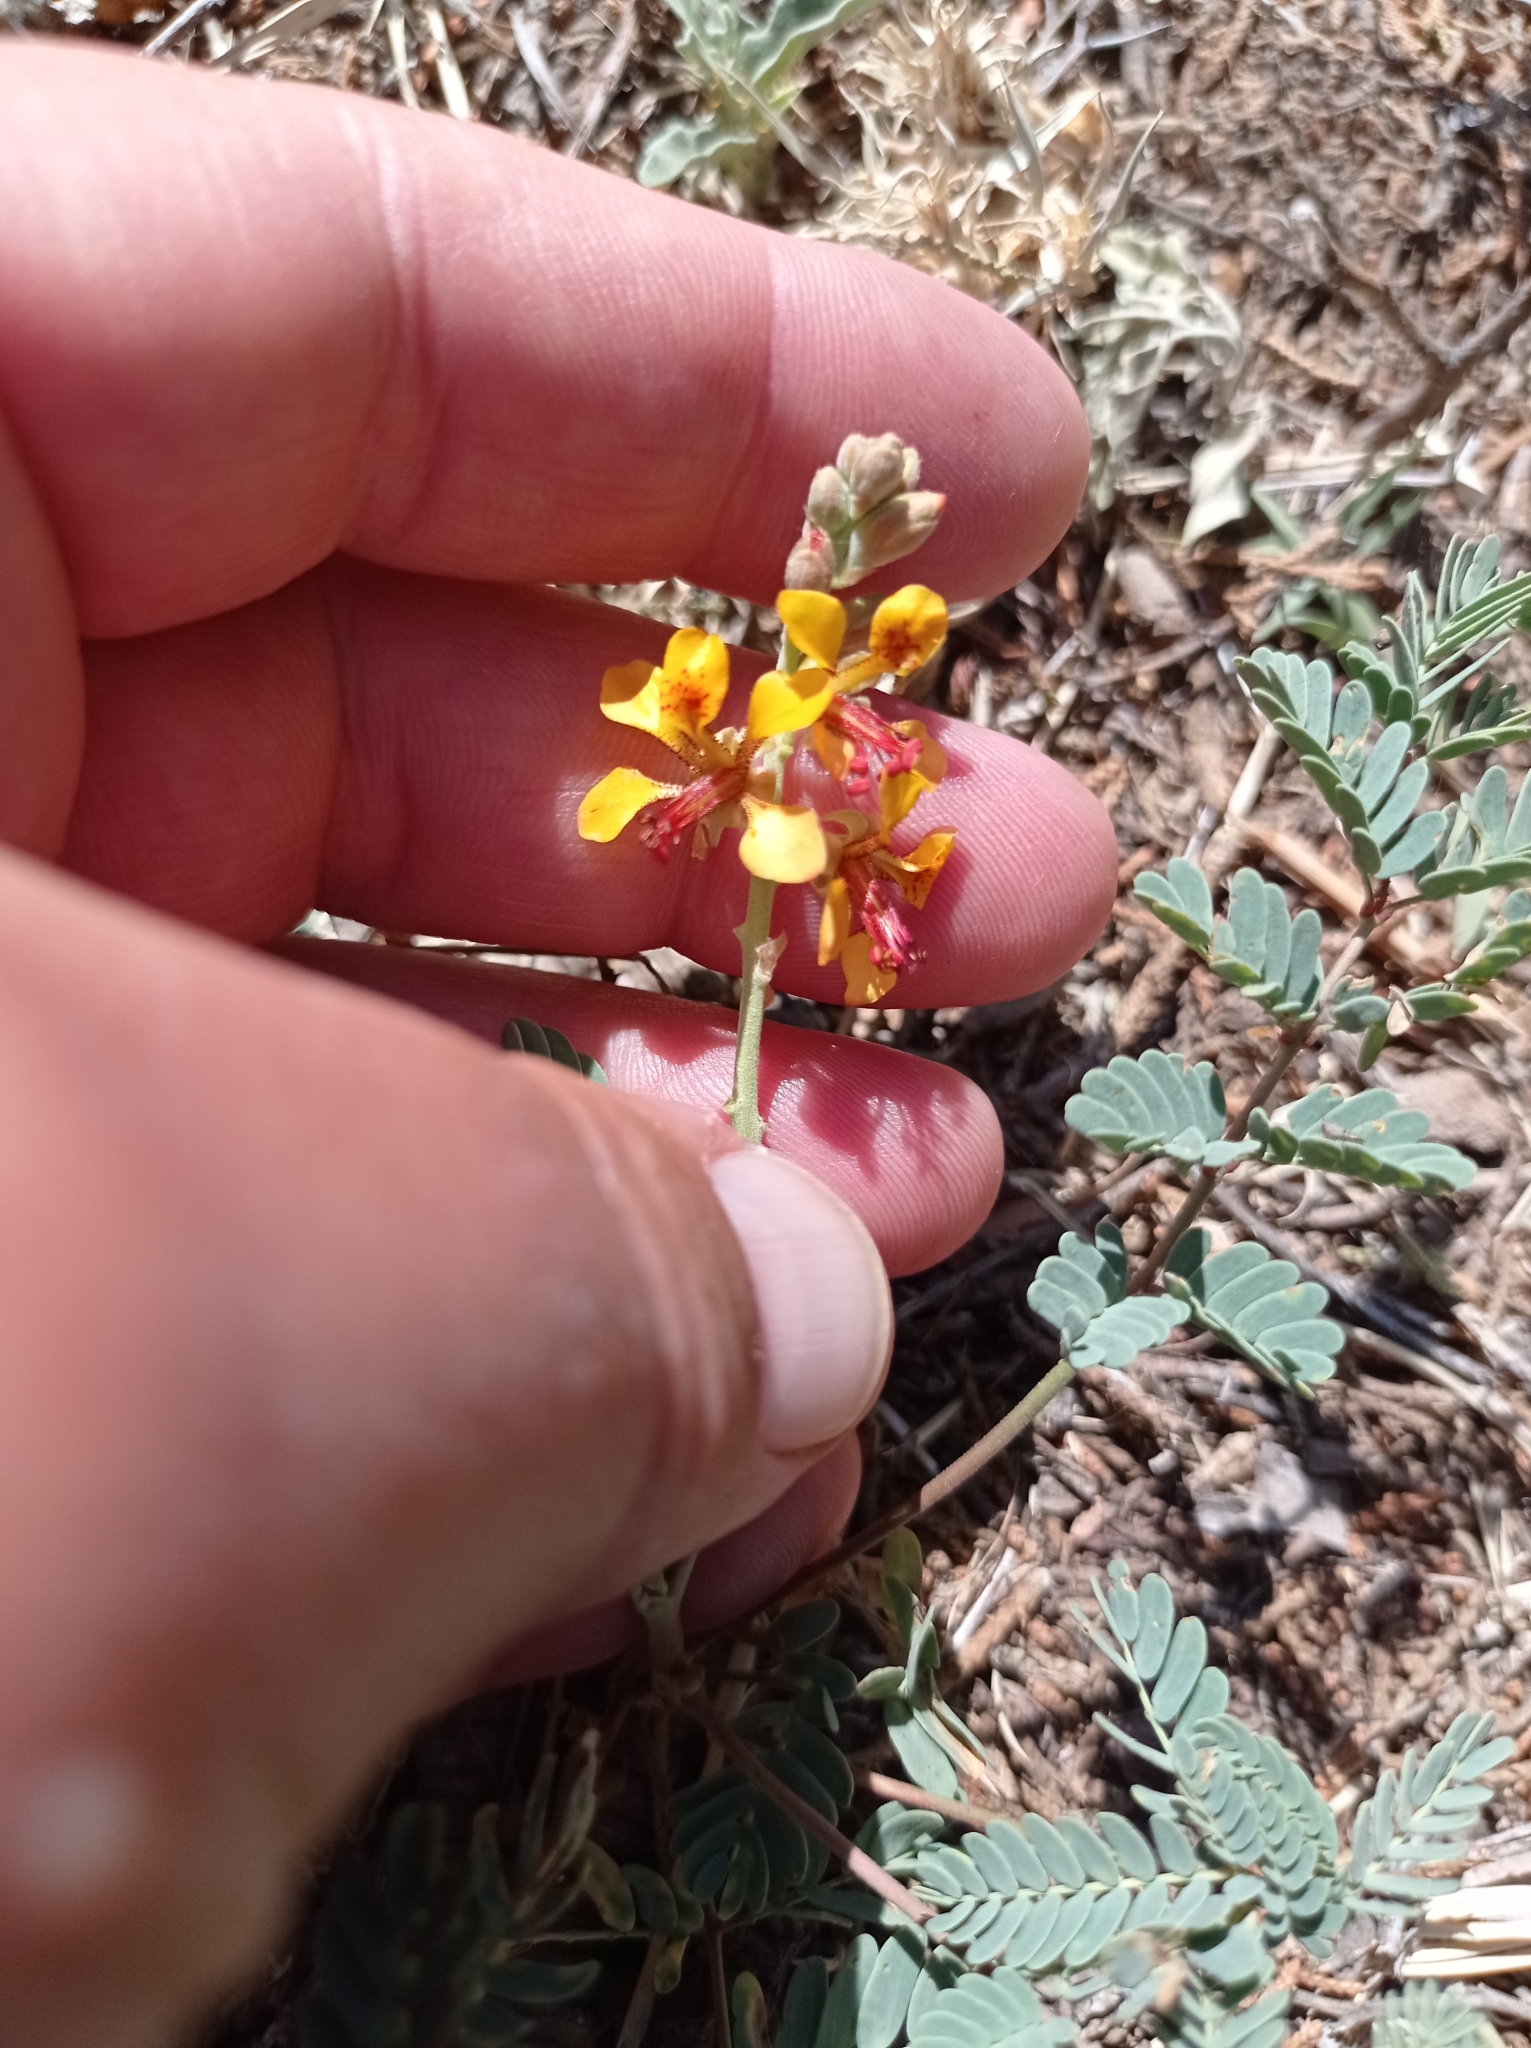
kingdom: Plantae
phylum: Tracheophyta
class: Magnoliopsida
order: Fabales
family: Fabaceae
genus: Hoffmannseggia
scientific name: Hoffmannseggia glauca
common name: Pignut
